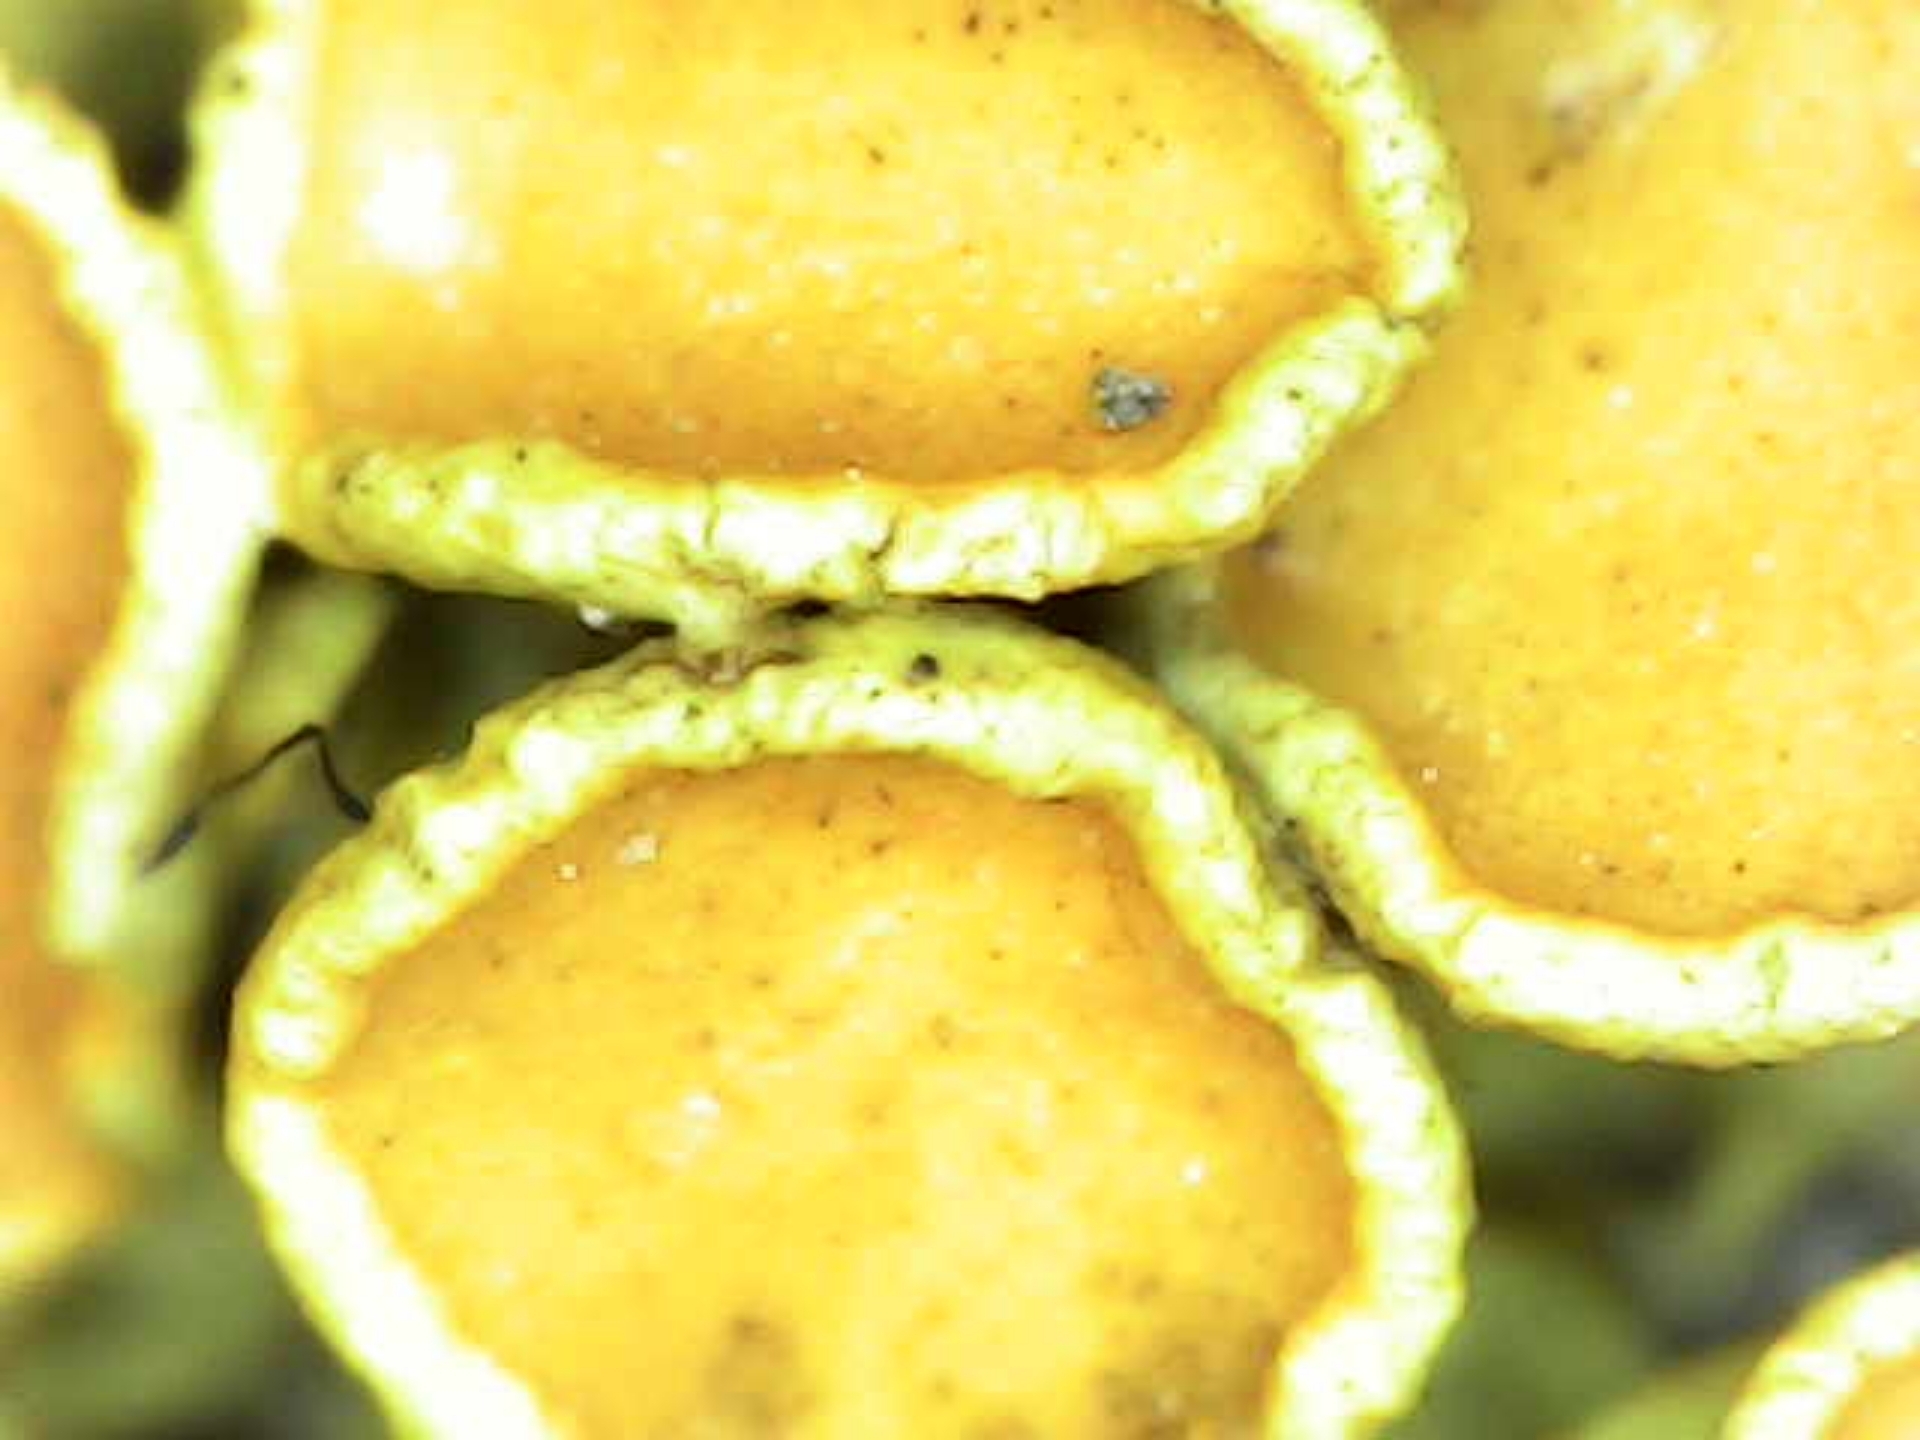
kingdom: Fungi
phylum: Ascomycota
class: Lecanoromycetes
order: Teloschistales
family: Teloschistaceae
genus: Xanthoria
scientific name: Xanthoria parietina
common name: Common orange lichen
